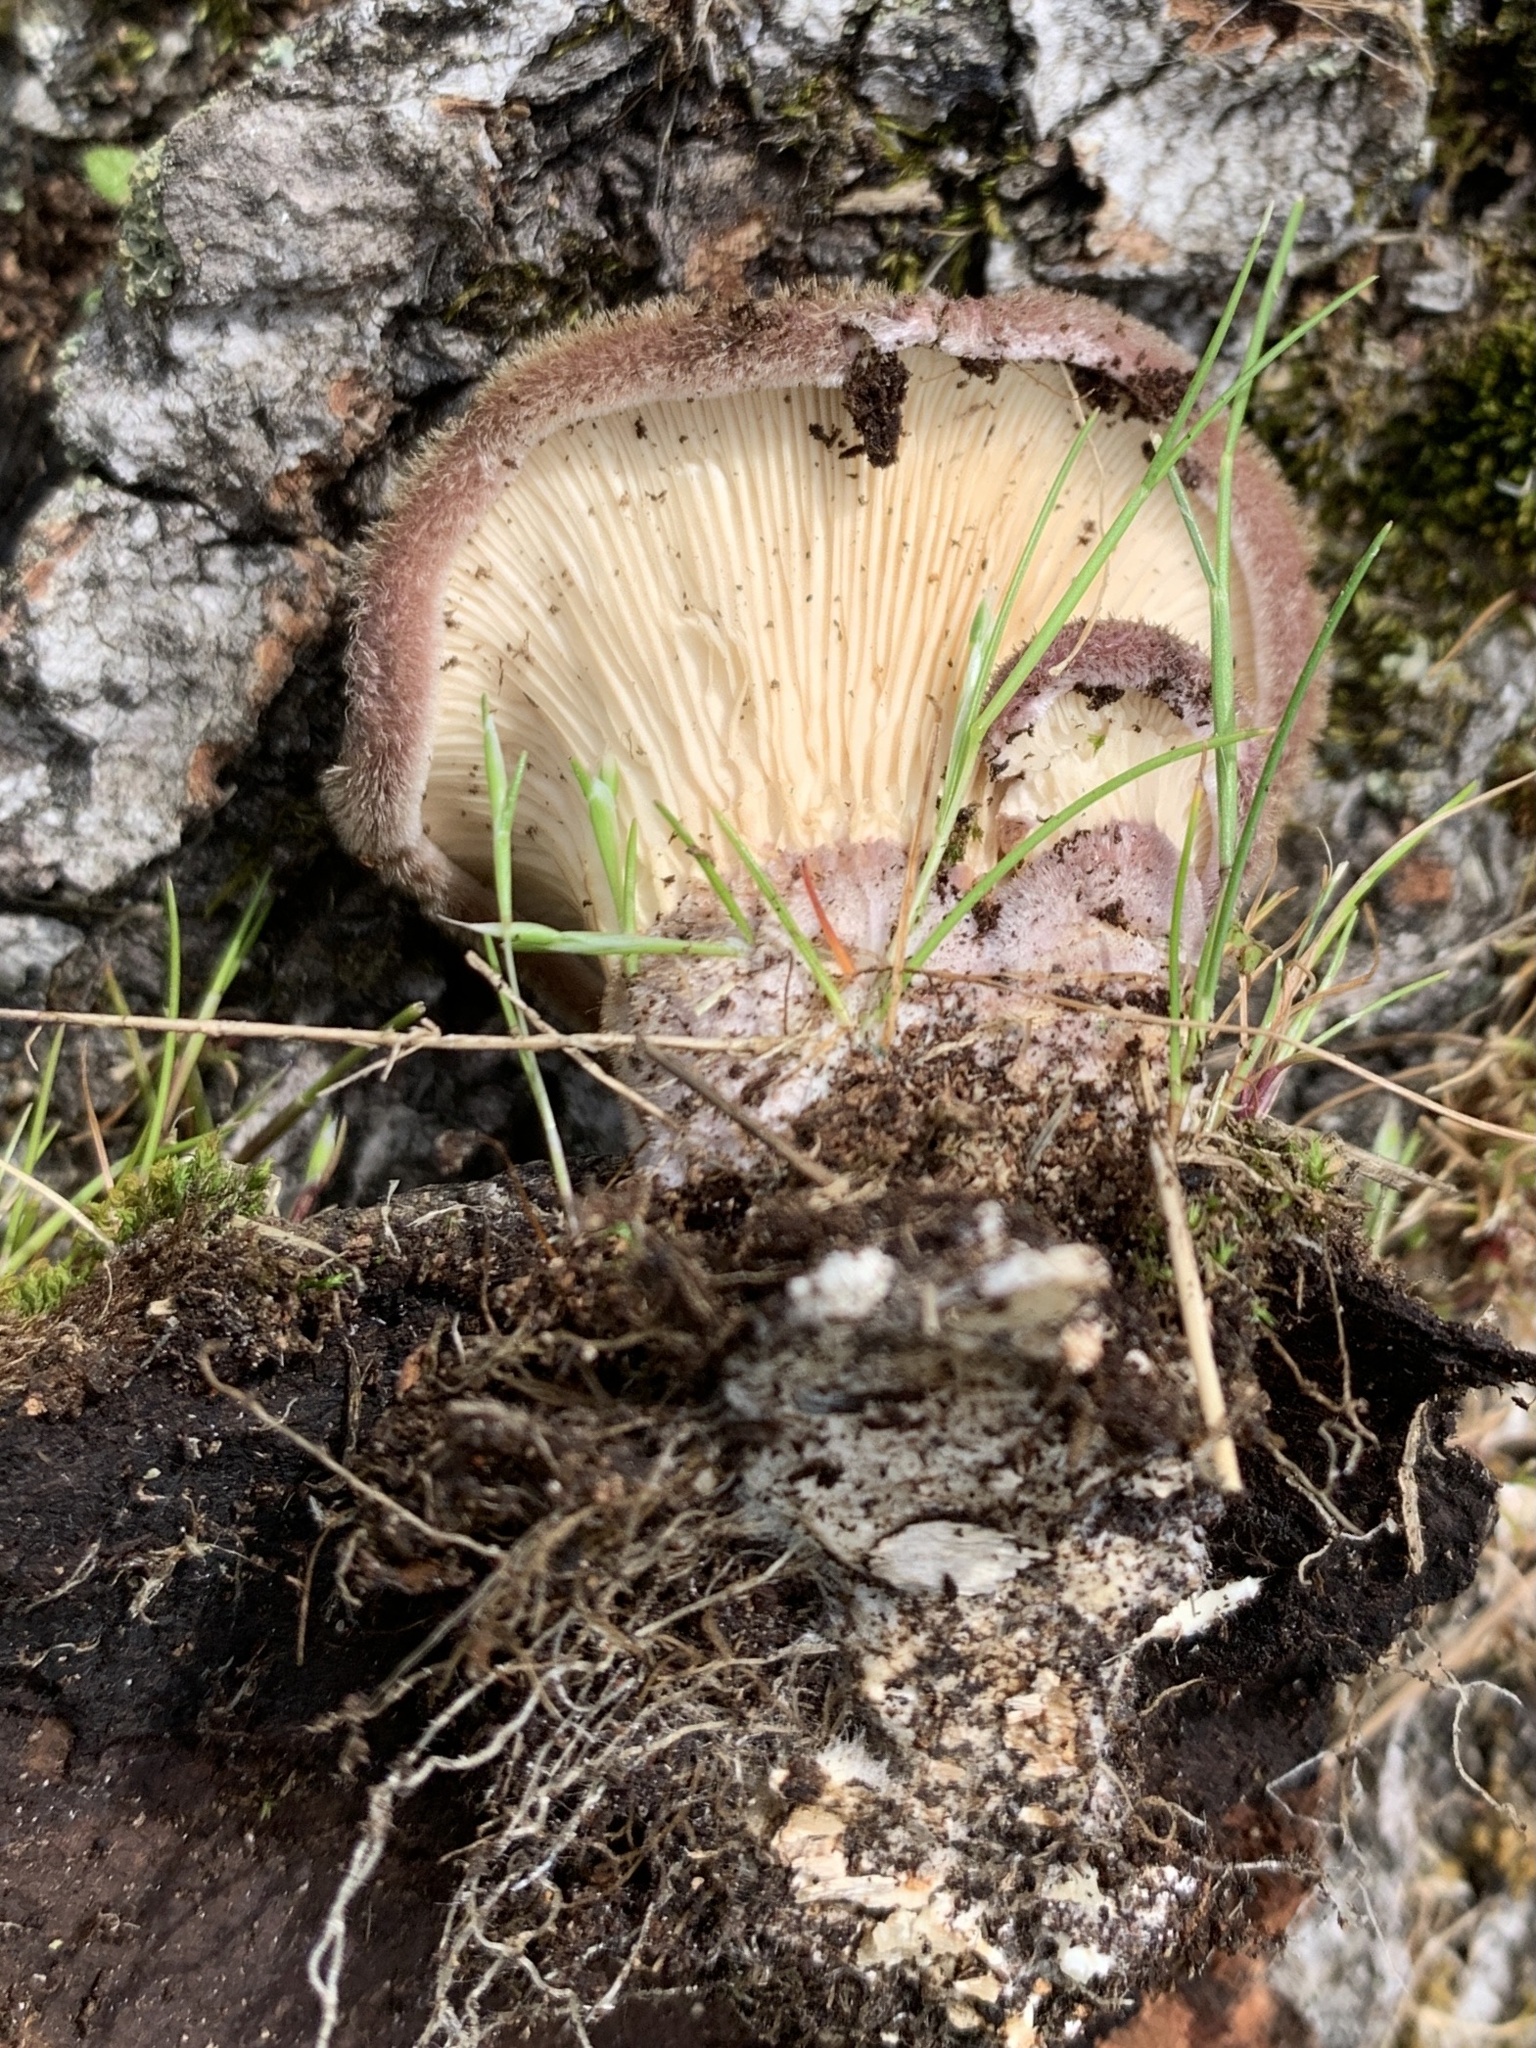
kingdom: Fungi
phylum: Basidiomycota
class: Agaricomycetes
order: Polyporales
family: Panaceae
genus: Panus
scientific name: Panus neostrigosus
